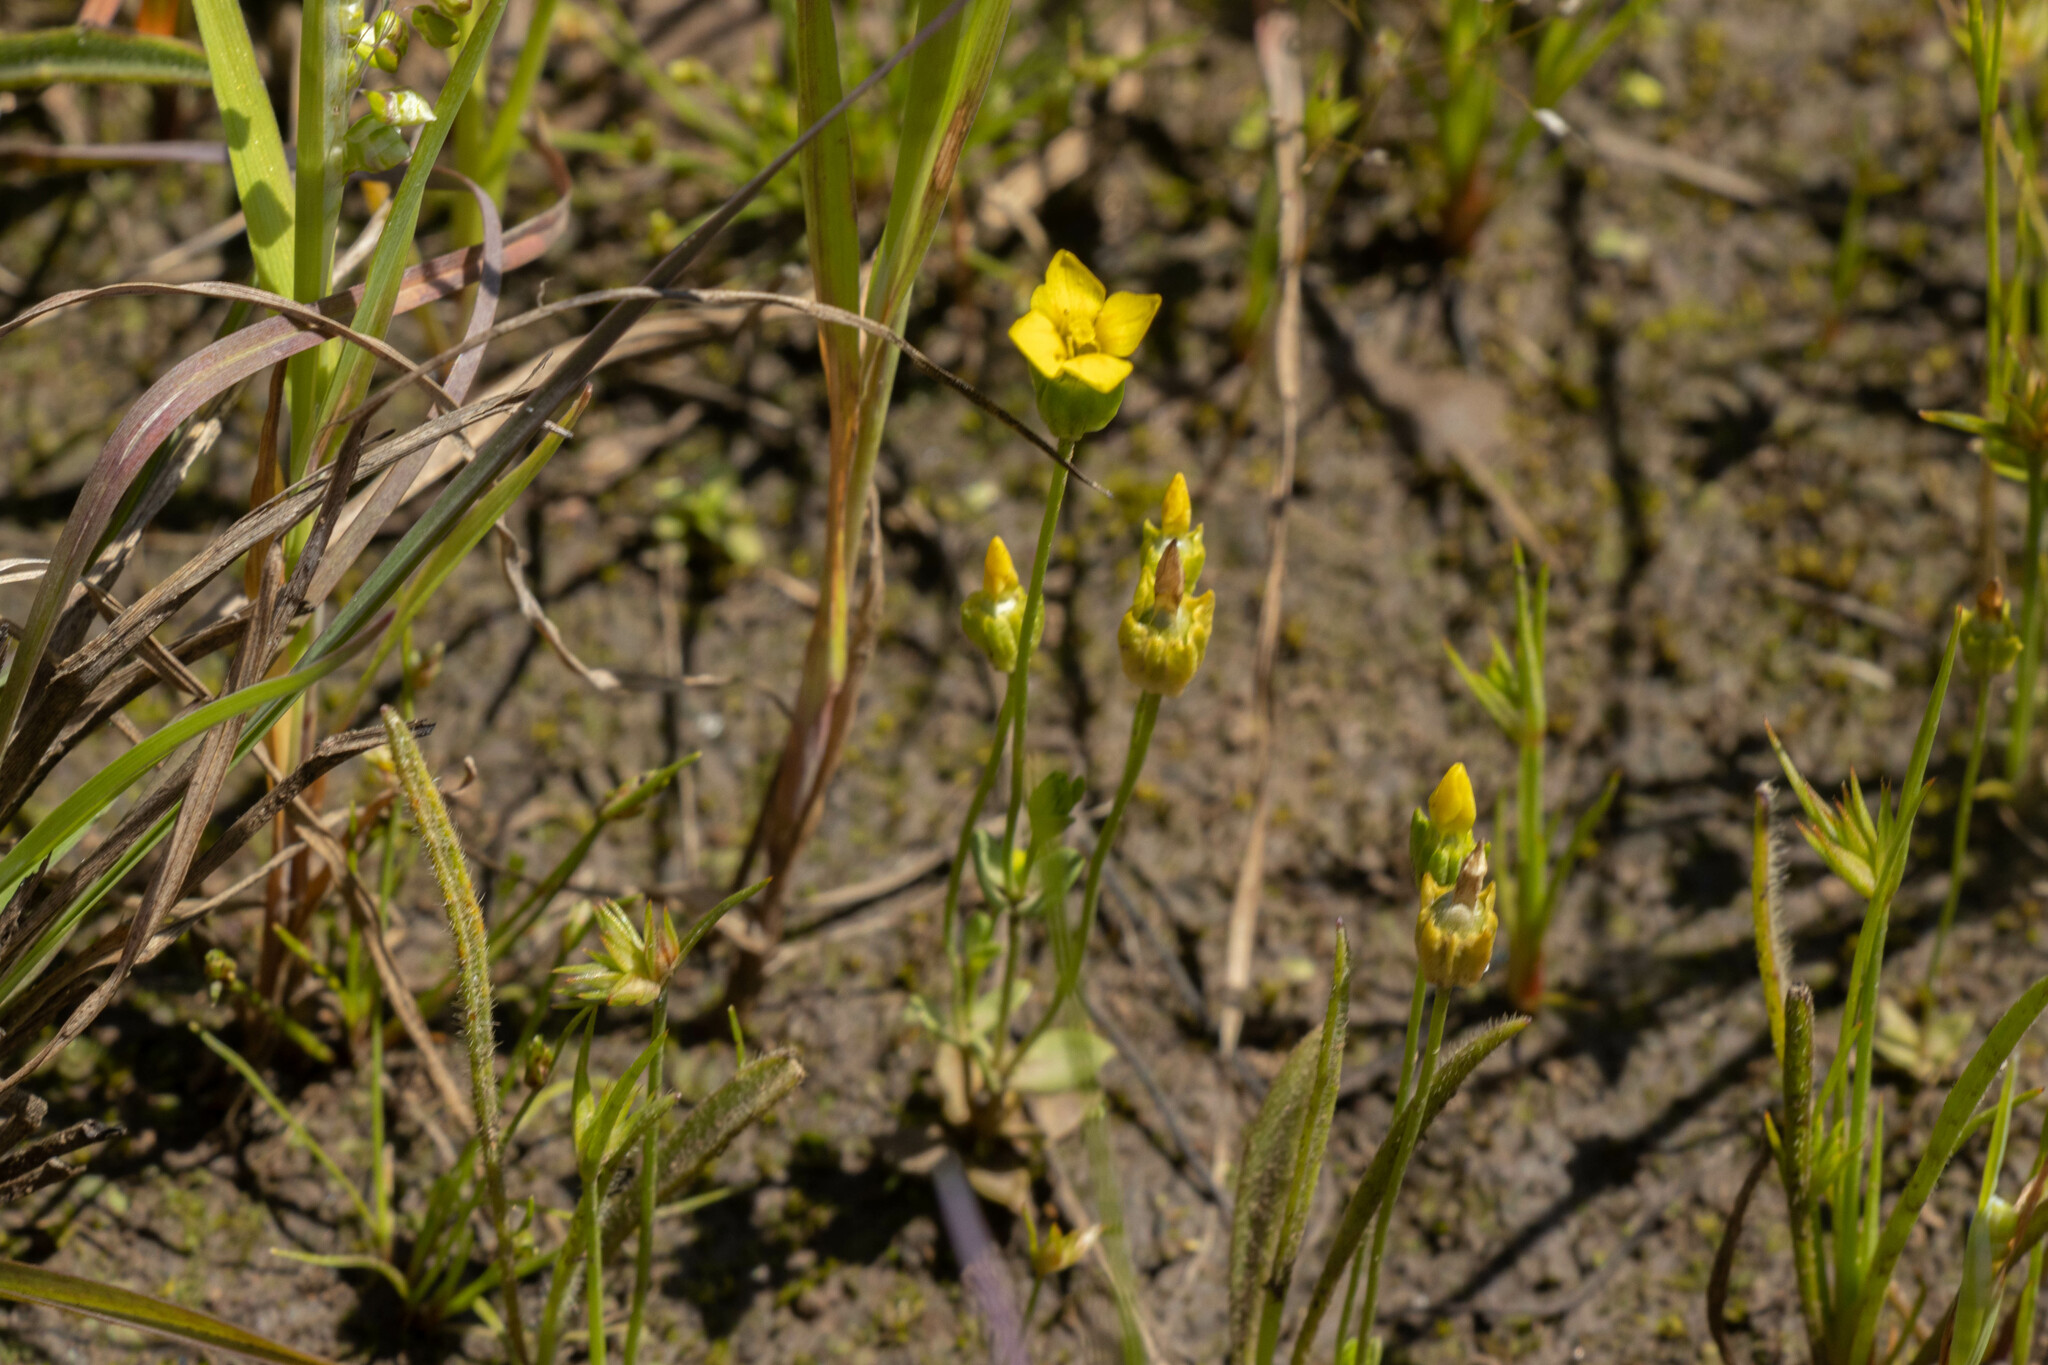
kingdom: Plantae
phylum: Tracheophyta
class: Magnoliopsida
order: Gentianales
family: Gentianaceae
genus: Cicendia
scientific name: Cicendia filiformis
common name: Yellow centaury
